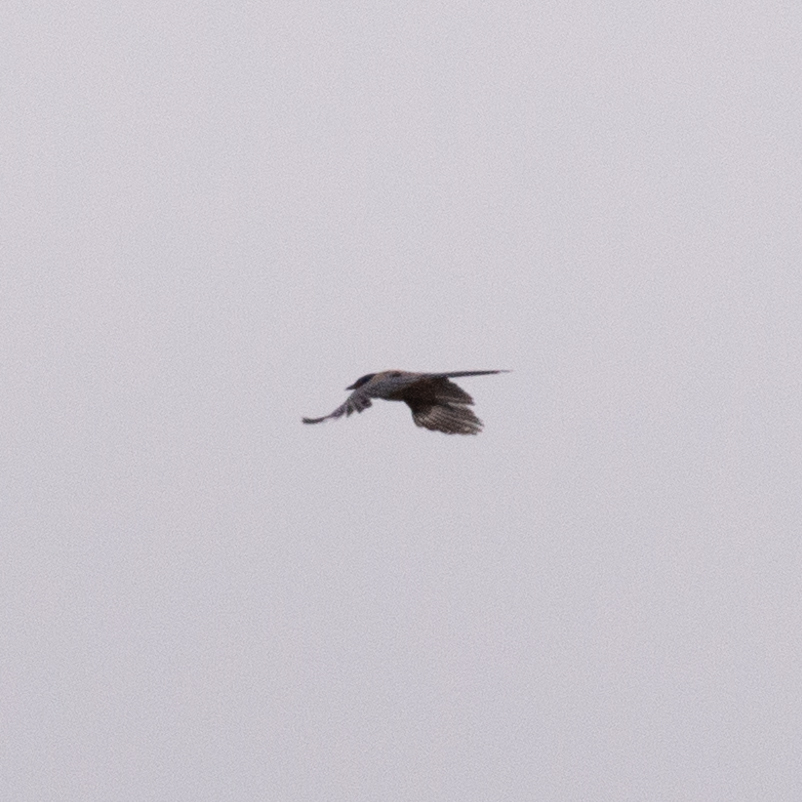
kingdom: Animalia
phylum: Chordata
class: Aves
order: Passeriformes
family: Corvidae
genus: Cyanopica
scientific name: Cyanopica cooki
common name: Iberian magpie
